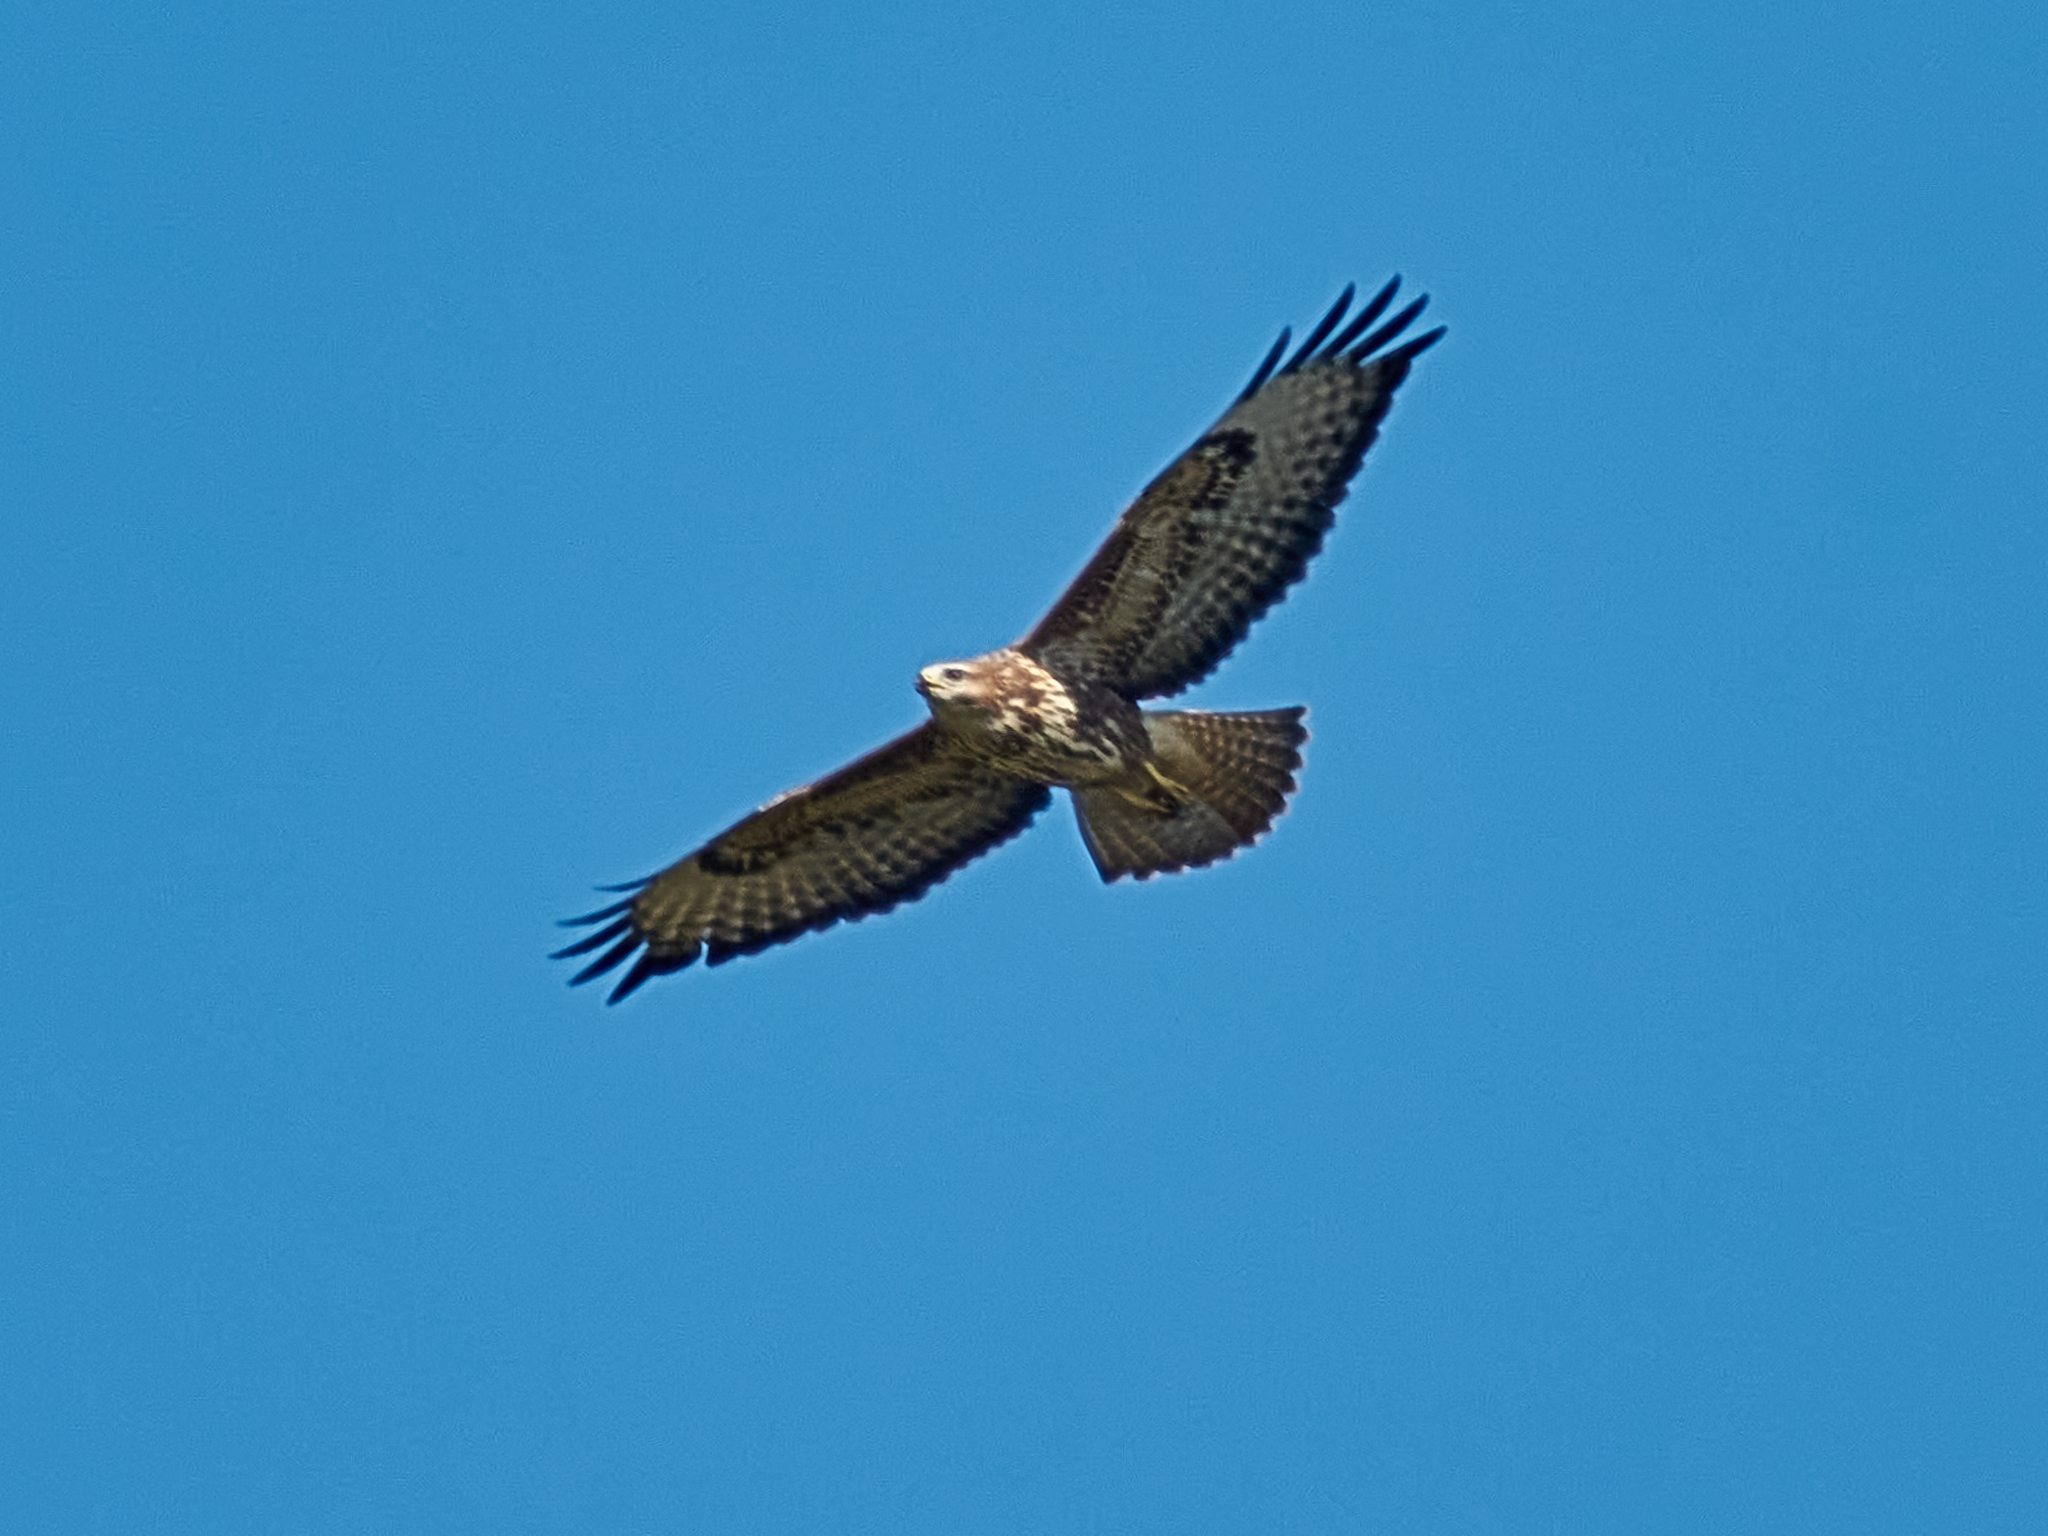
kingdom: Animalia
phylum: Chordata
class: Aves
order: Accipitriformes
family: Accipitridae
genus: Buteo
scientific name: Buteo buteo
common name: Common buzzard
